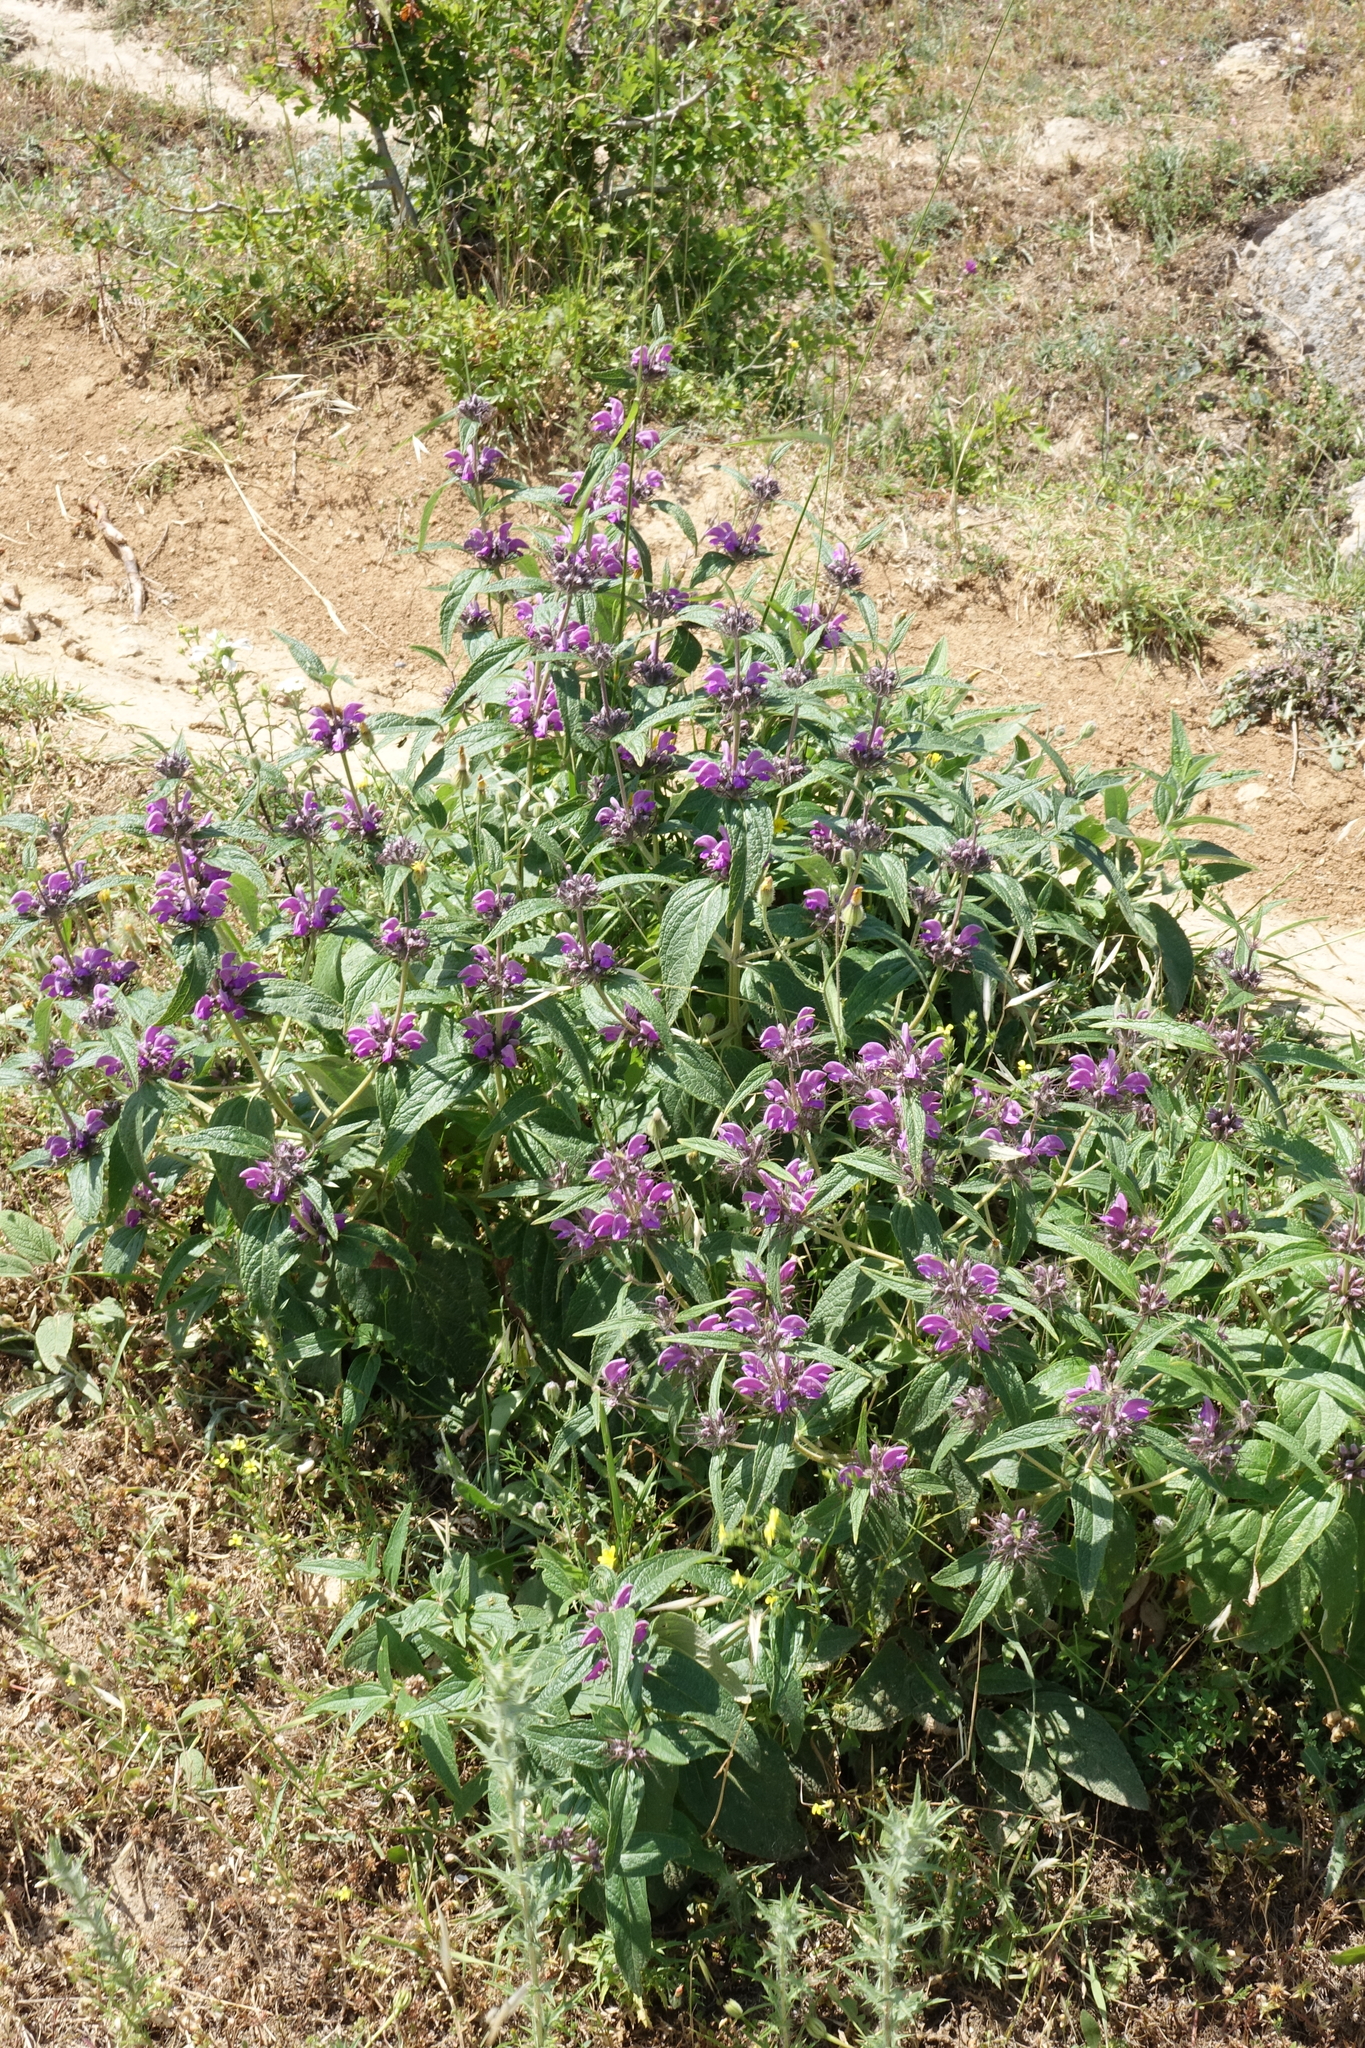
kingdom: Plantae
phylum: Tracheophyta
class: Magnoliopsida
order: Lamiales
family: Lamiaceae
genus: Phlomis
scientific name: Phlomis herba-venti
